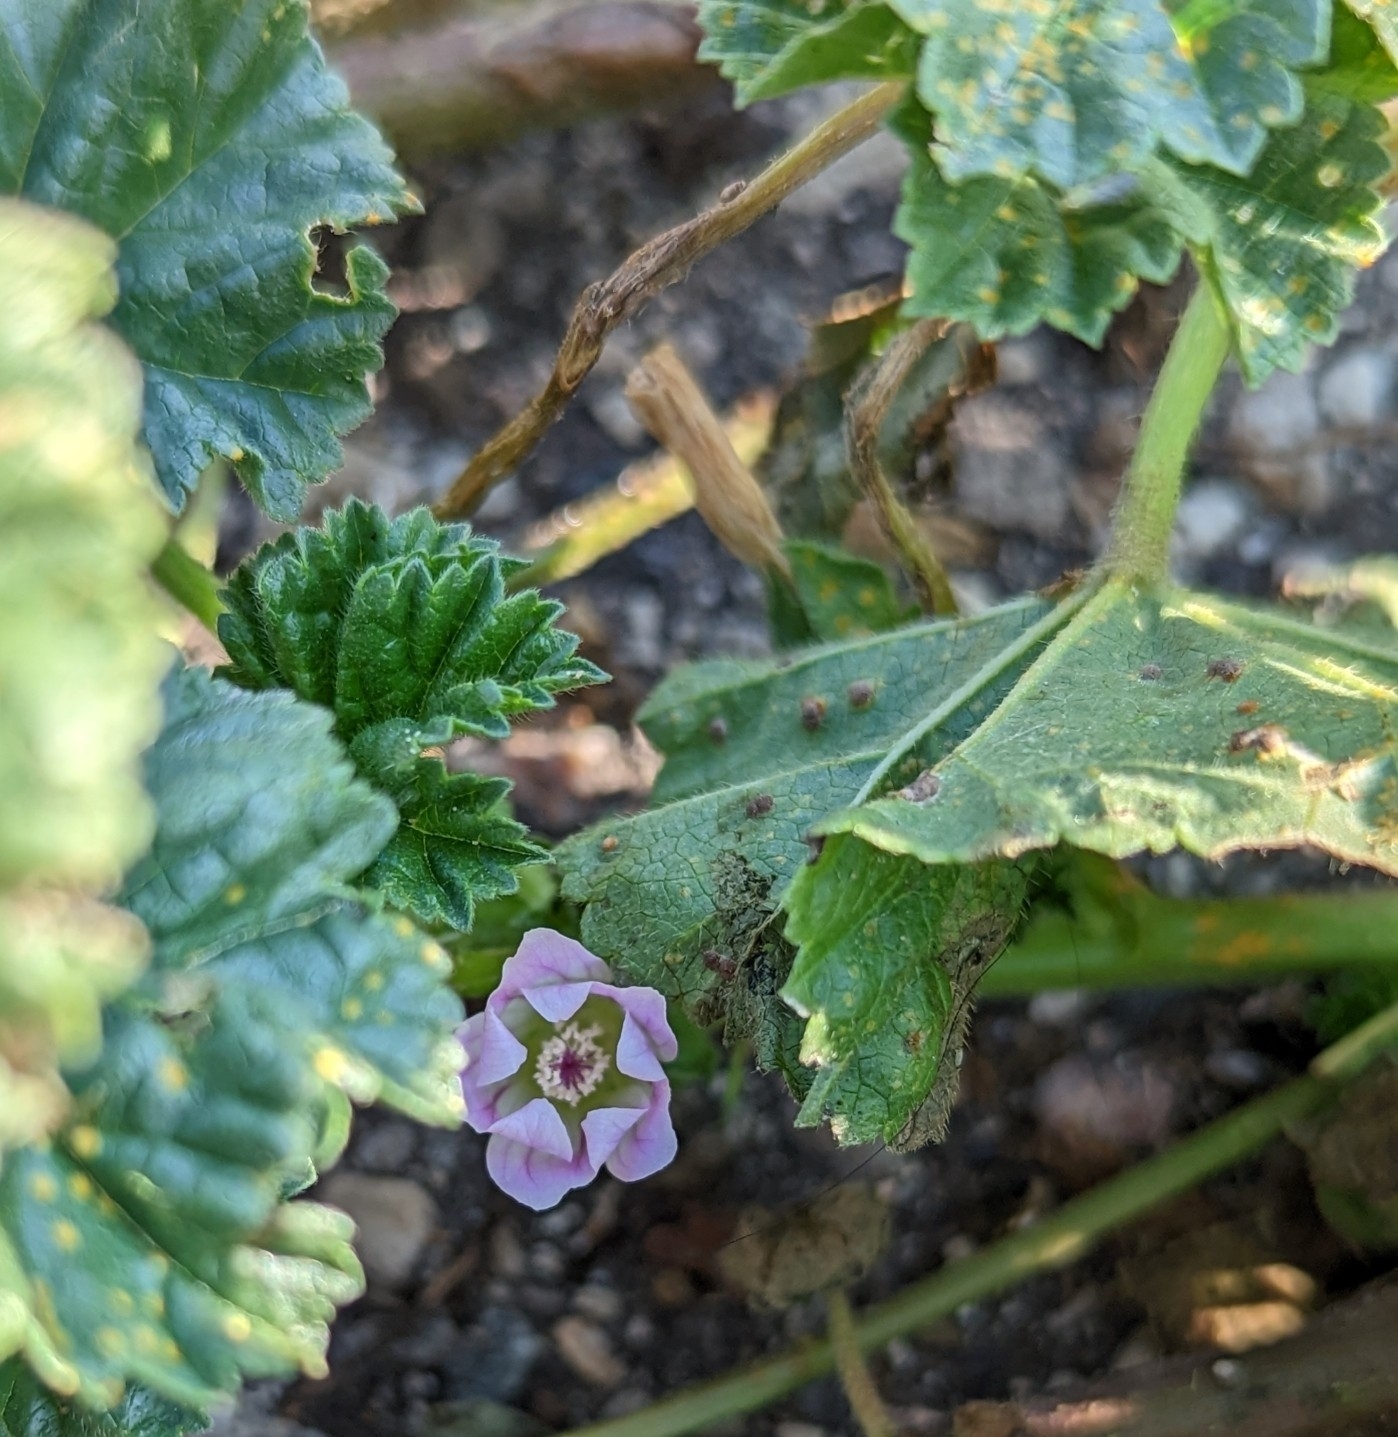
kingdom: Fungi
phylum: Basidiomycota
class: Pucciniomycetes
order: Pucciniales
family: Pucciniaceae
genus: Puccinia
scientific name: Puccinia malvacearum
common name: Hollyhock rust
